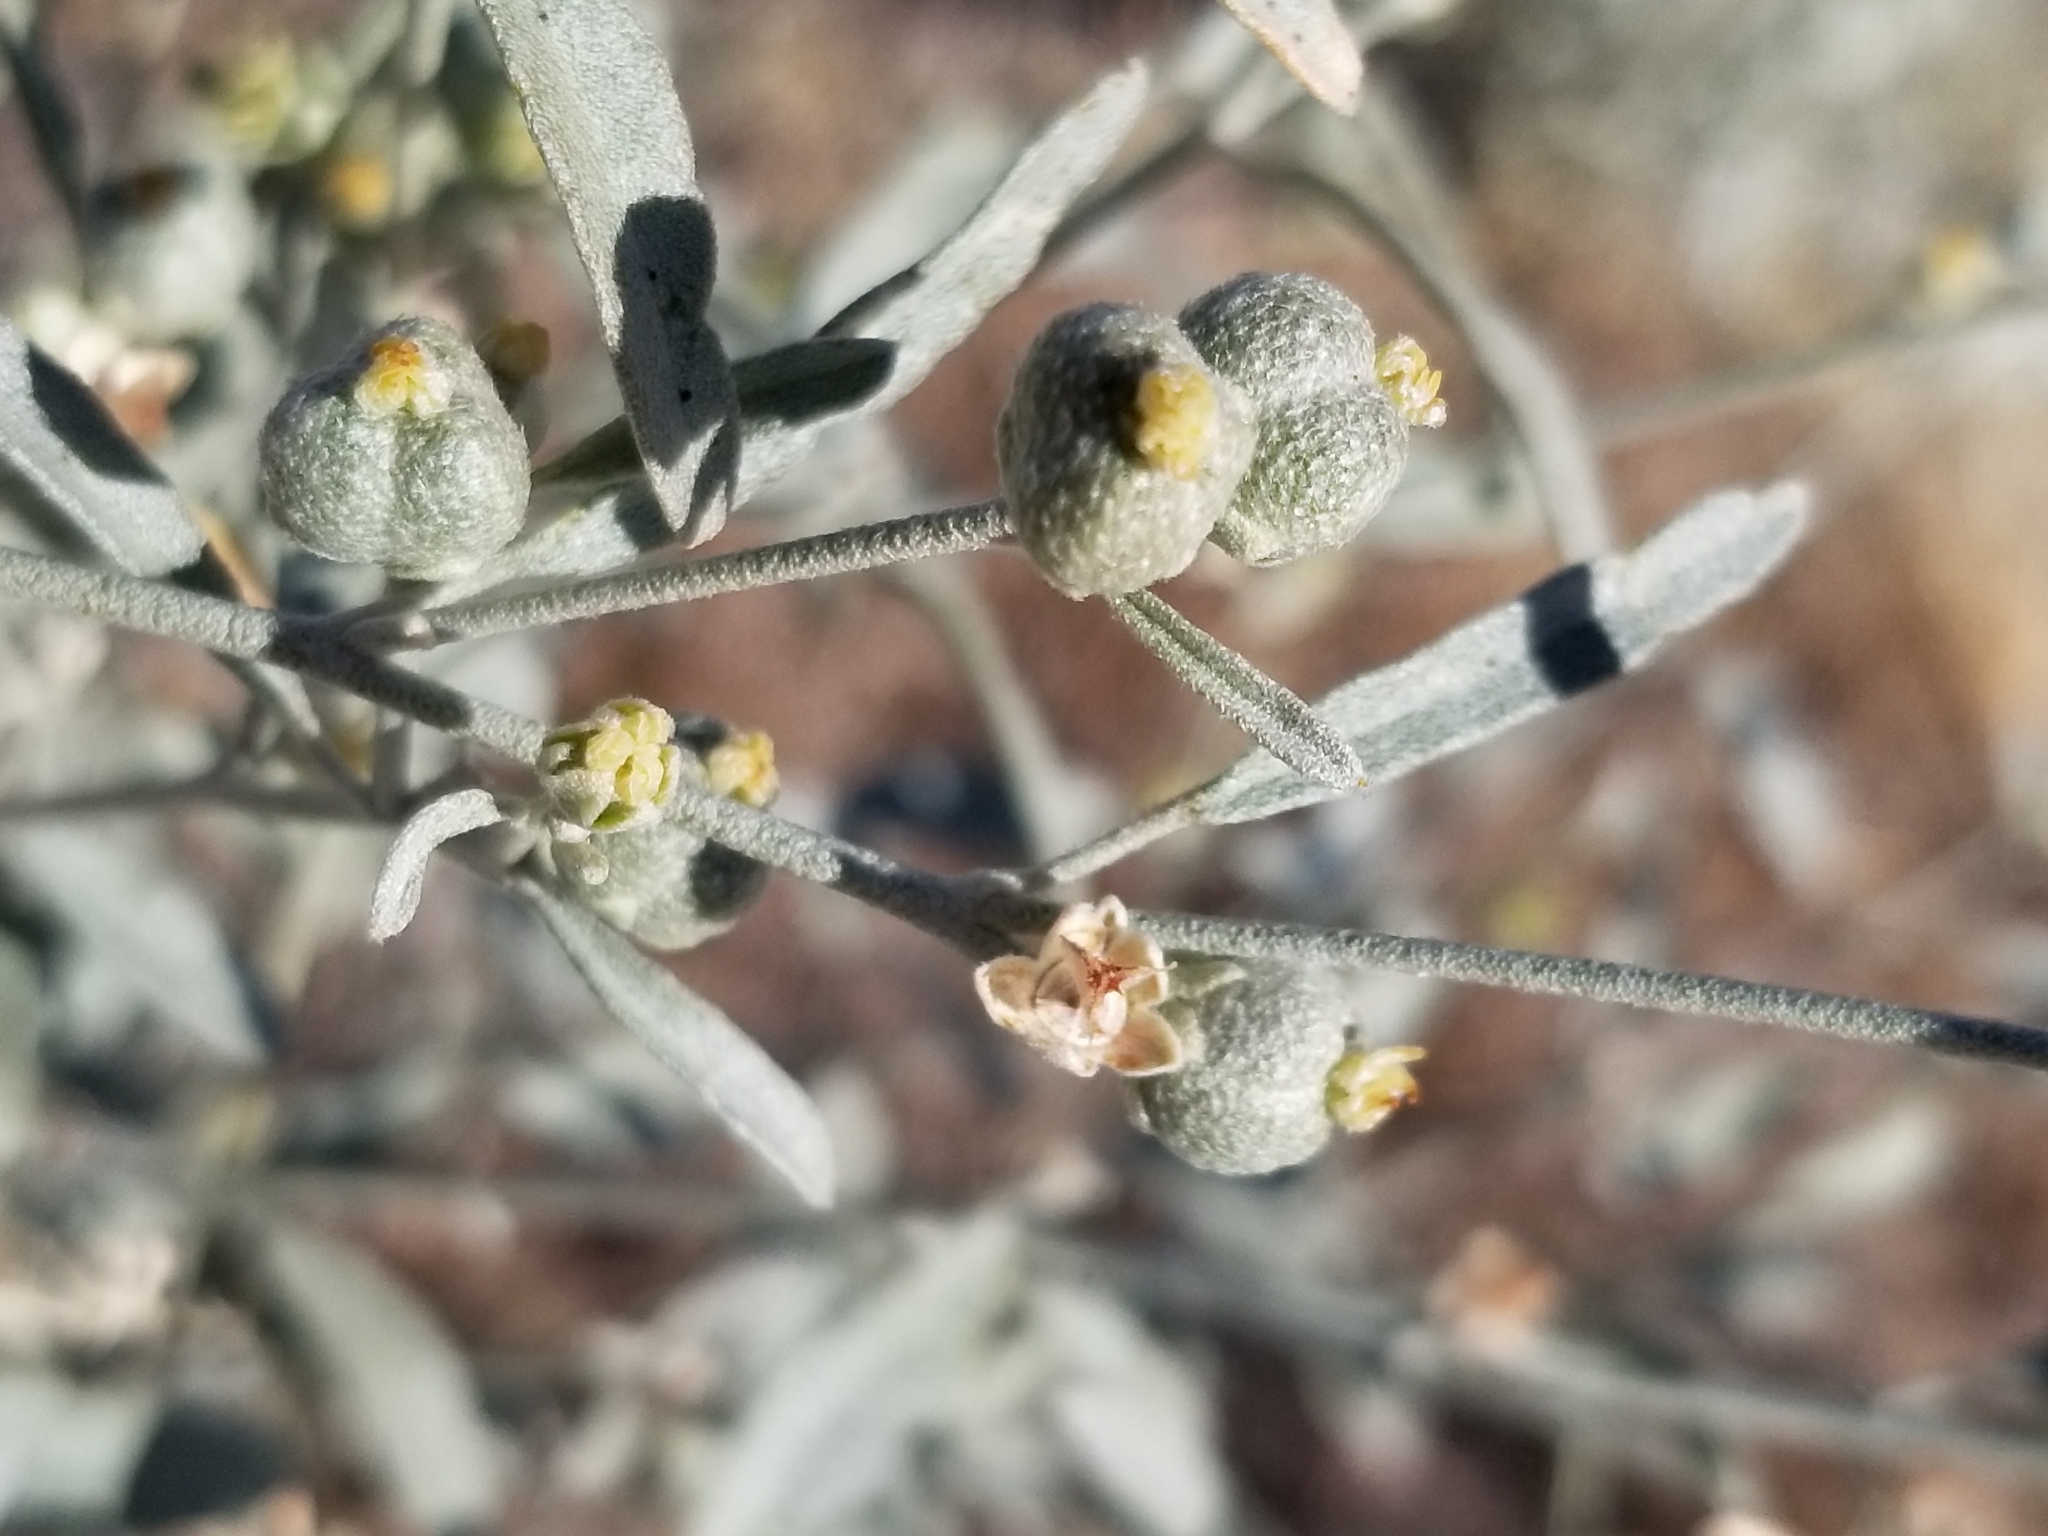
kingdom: Plantae
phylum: Tracheophyta
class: Magnoliopsida
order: Malpighiales
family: Euphorbiaceae
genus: Croton
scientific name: Croton californicus
